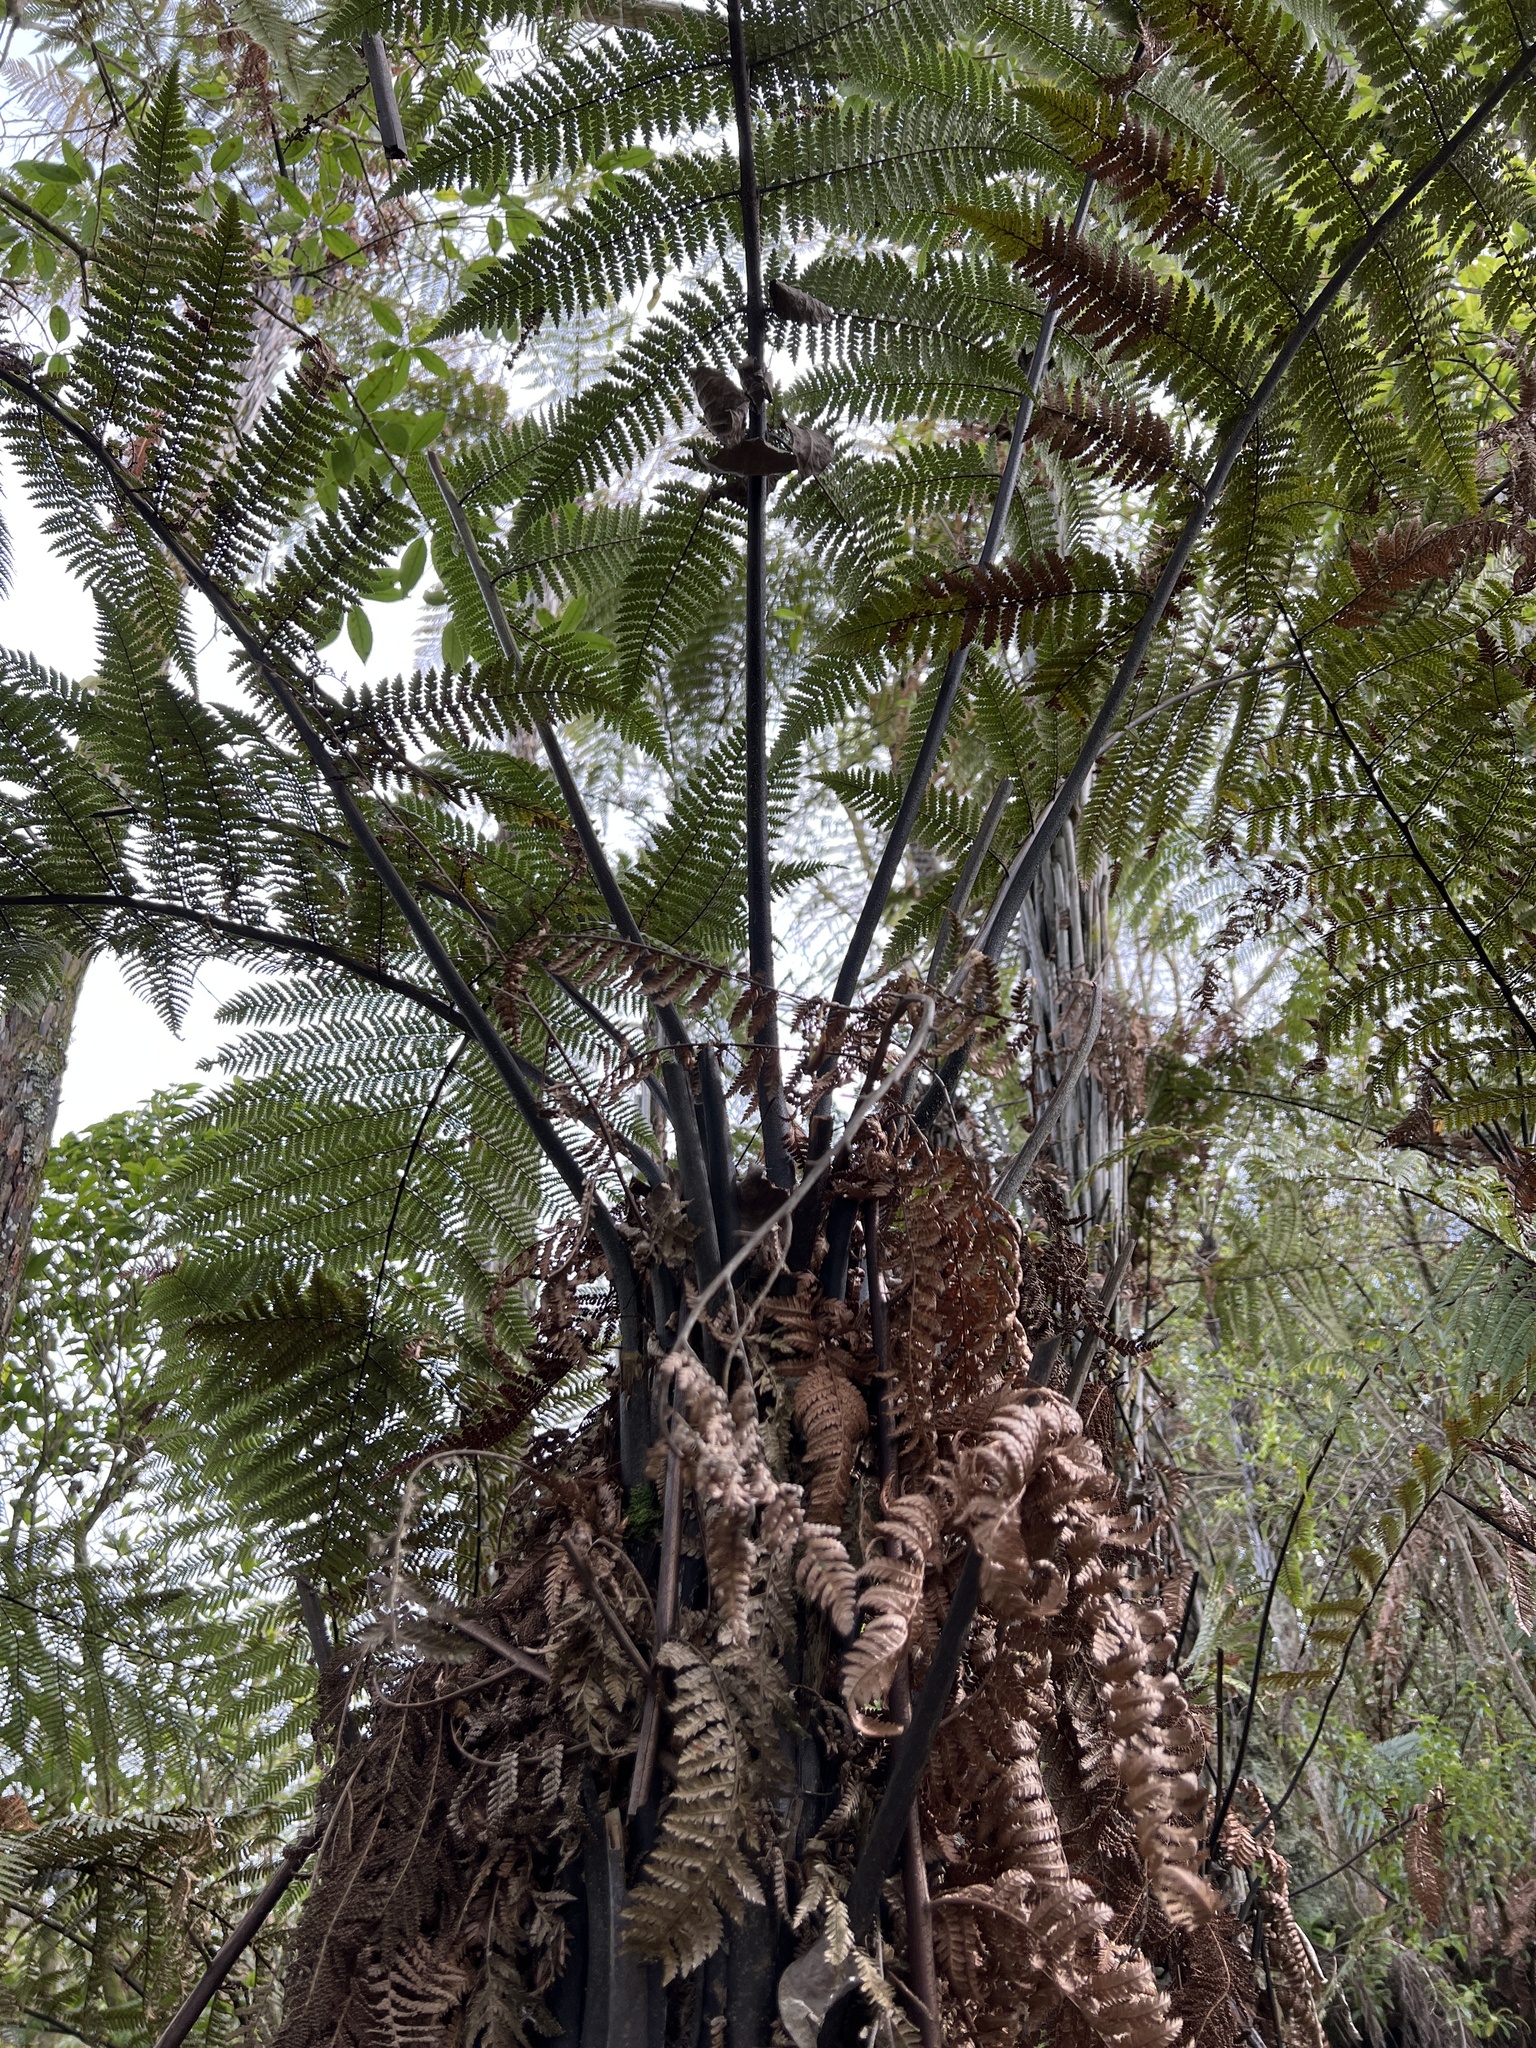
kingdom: Plantae
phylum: Tracheophyta
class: Polypodiopsida
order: Cyatheales
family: Dicksoniaceae
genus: Dicksonia
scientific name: Dicksonia squarrosa
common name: Hard treefern
